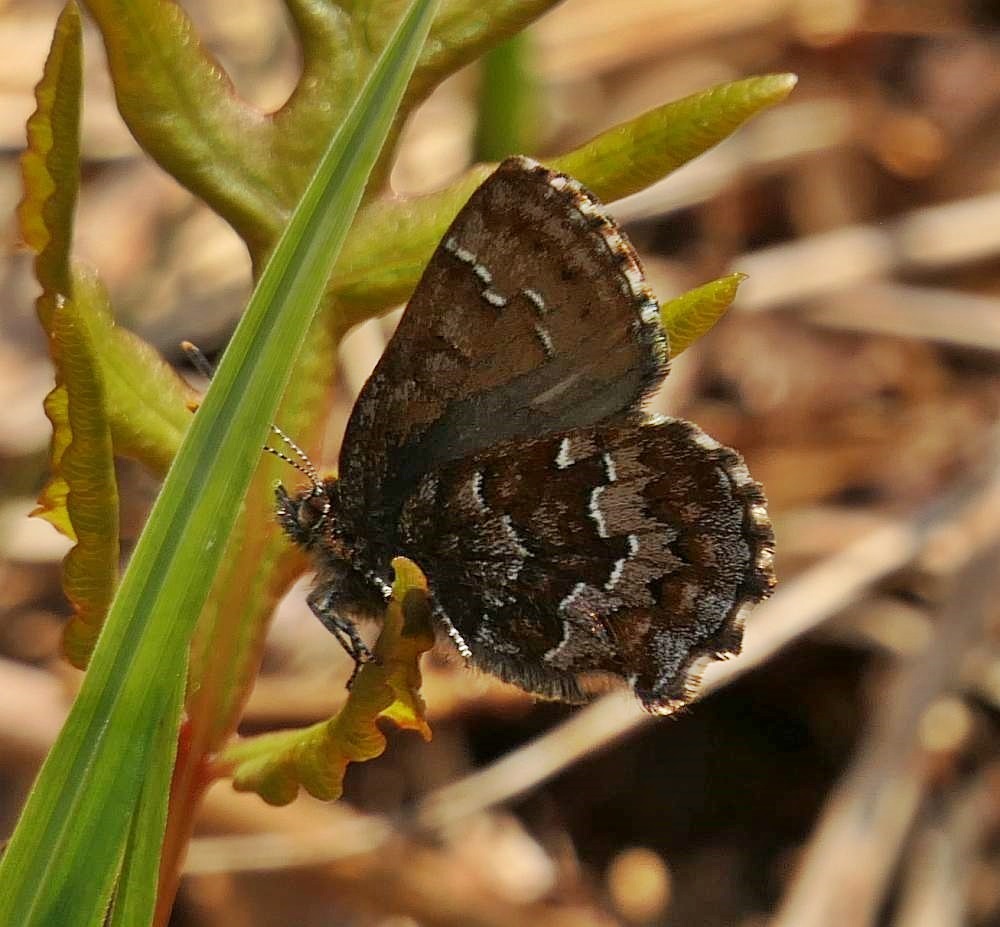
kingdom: Animalia
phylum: Arthropoda
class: Insecta
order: Lepidoptera
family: Lycaenidae
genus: Incisalia
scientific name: Incisalia niphon
